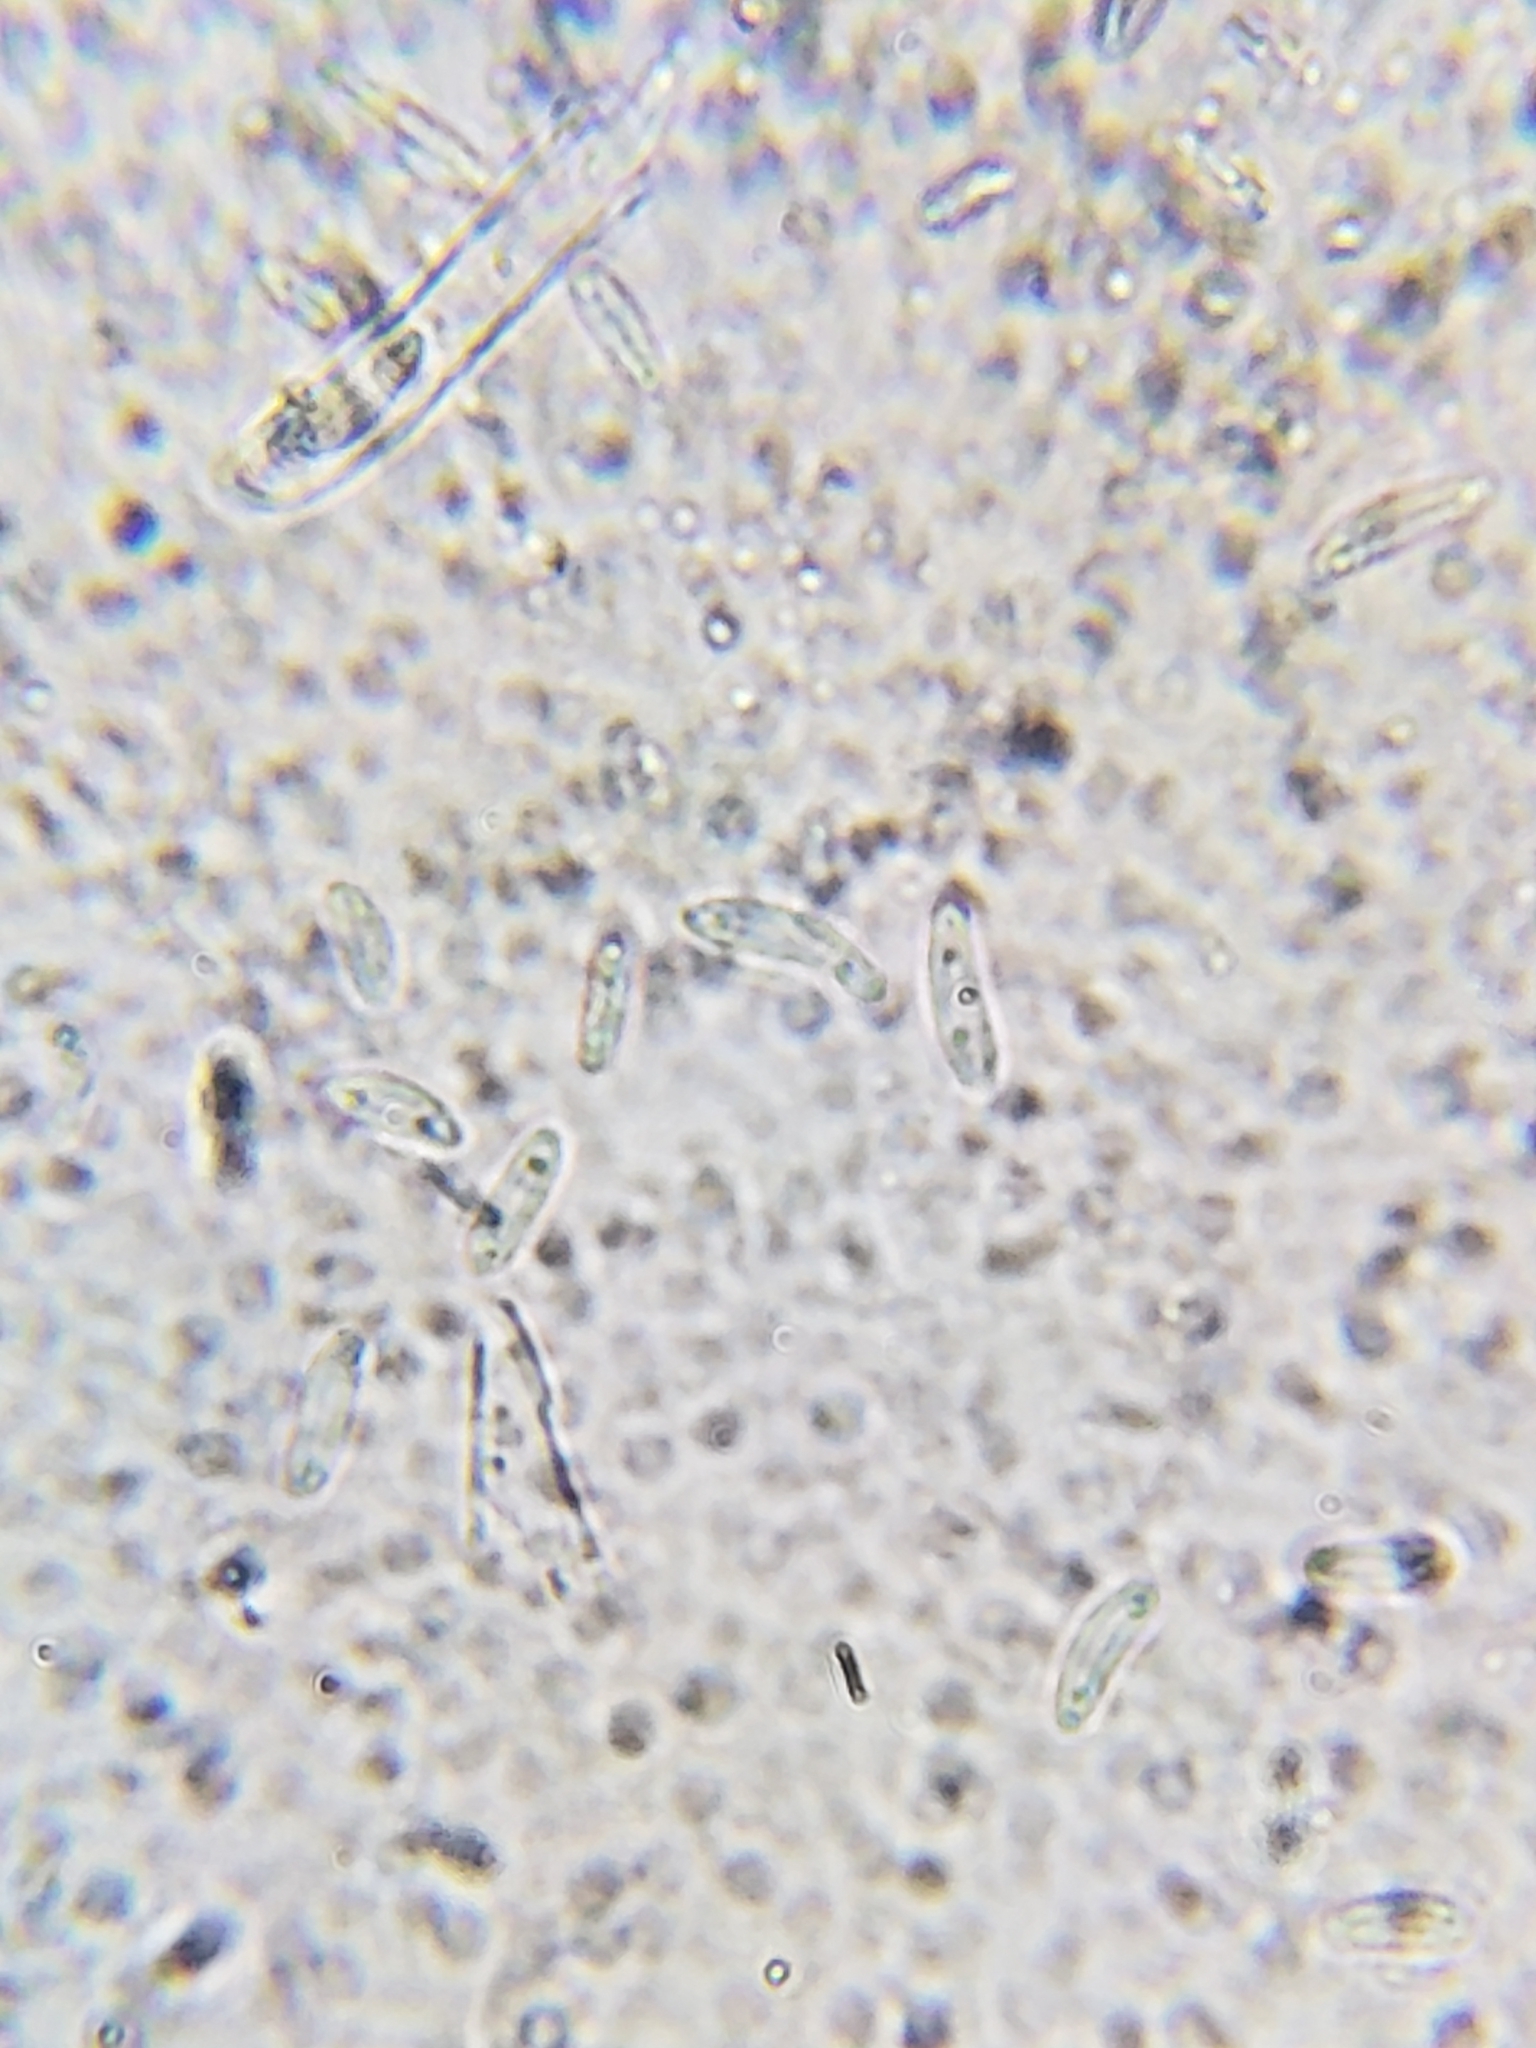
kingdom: Fungi
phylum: Ascomycota
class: Leotiomycetes
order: Helotiales
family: Chlorospleniaceae
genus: Chlorosplenium
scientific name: Chlorosplenium chlora
